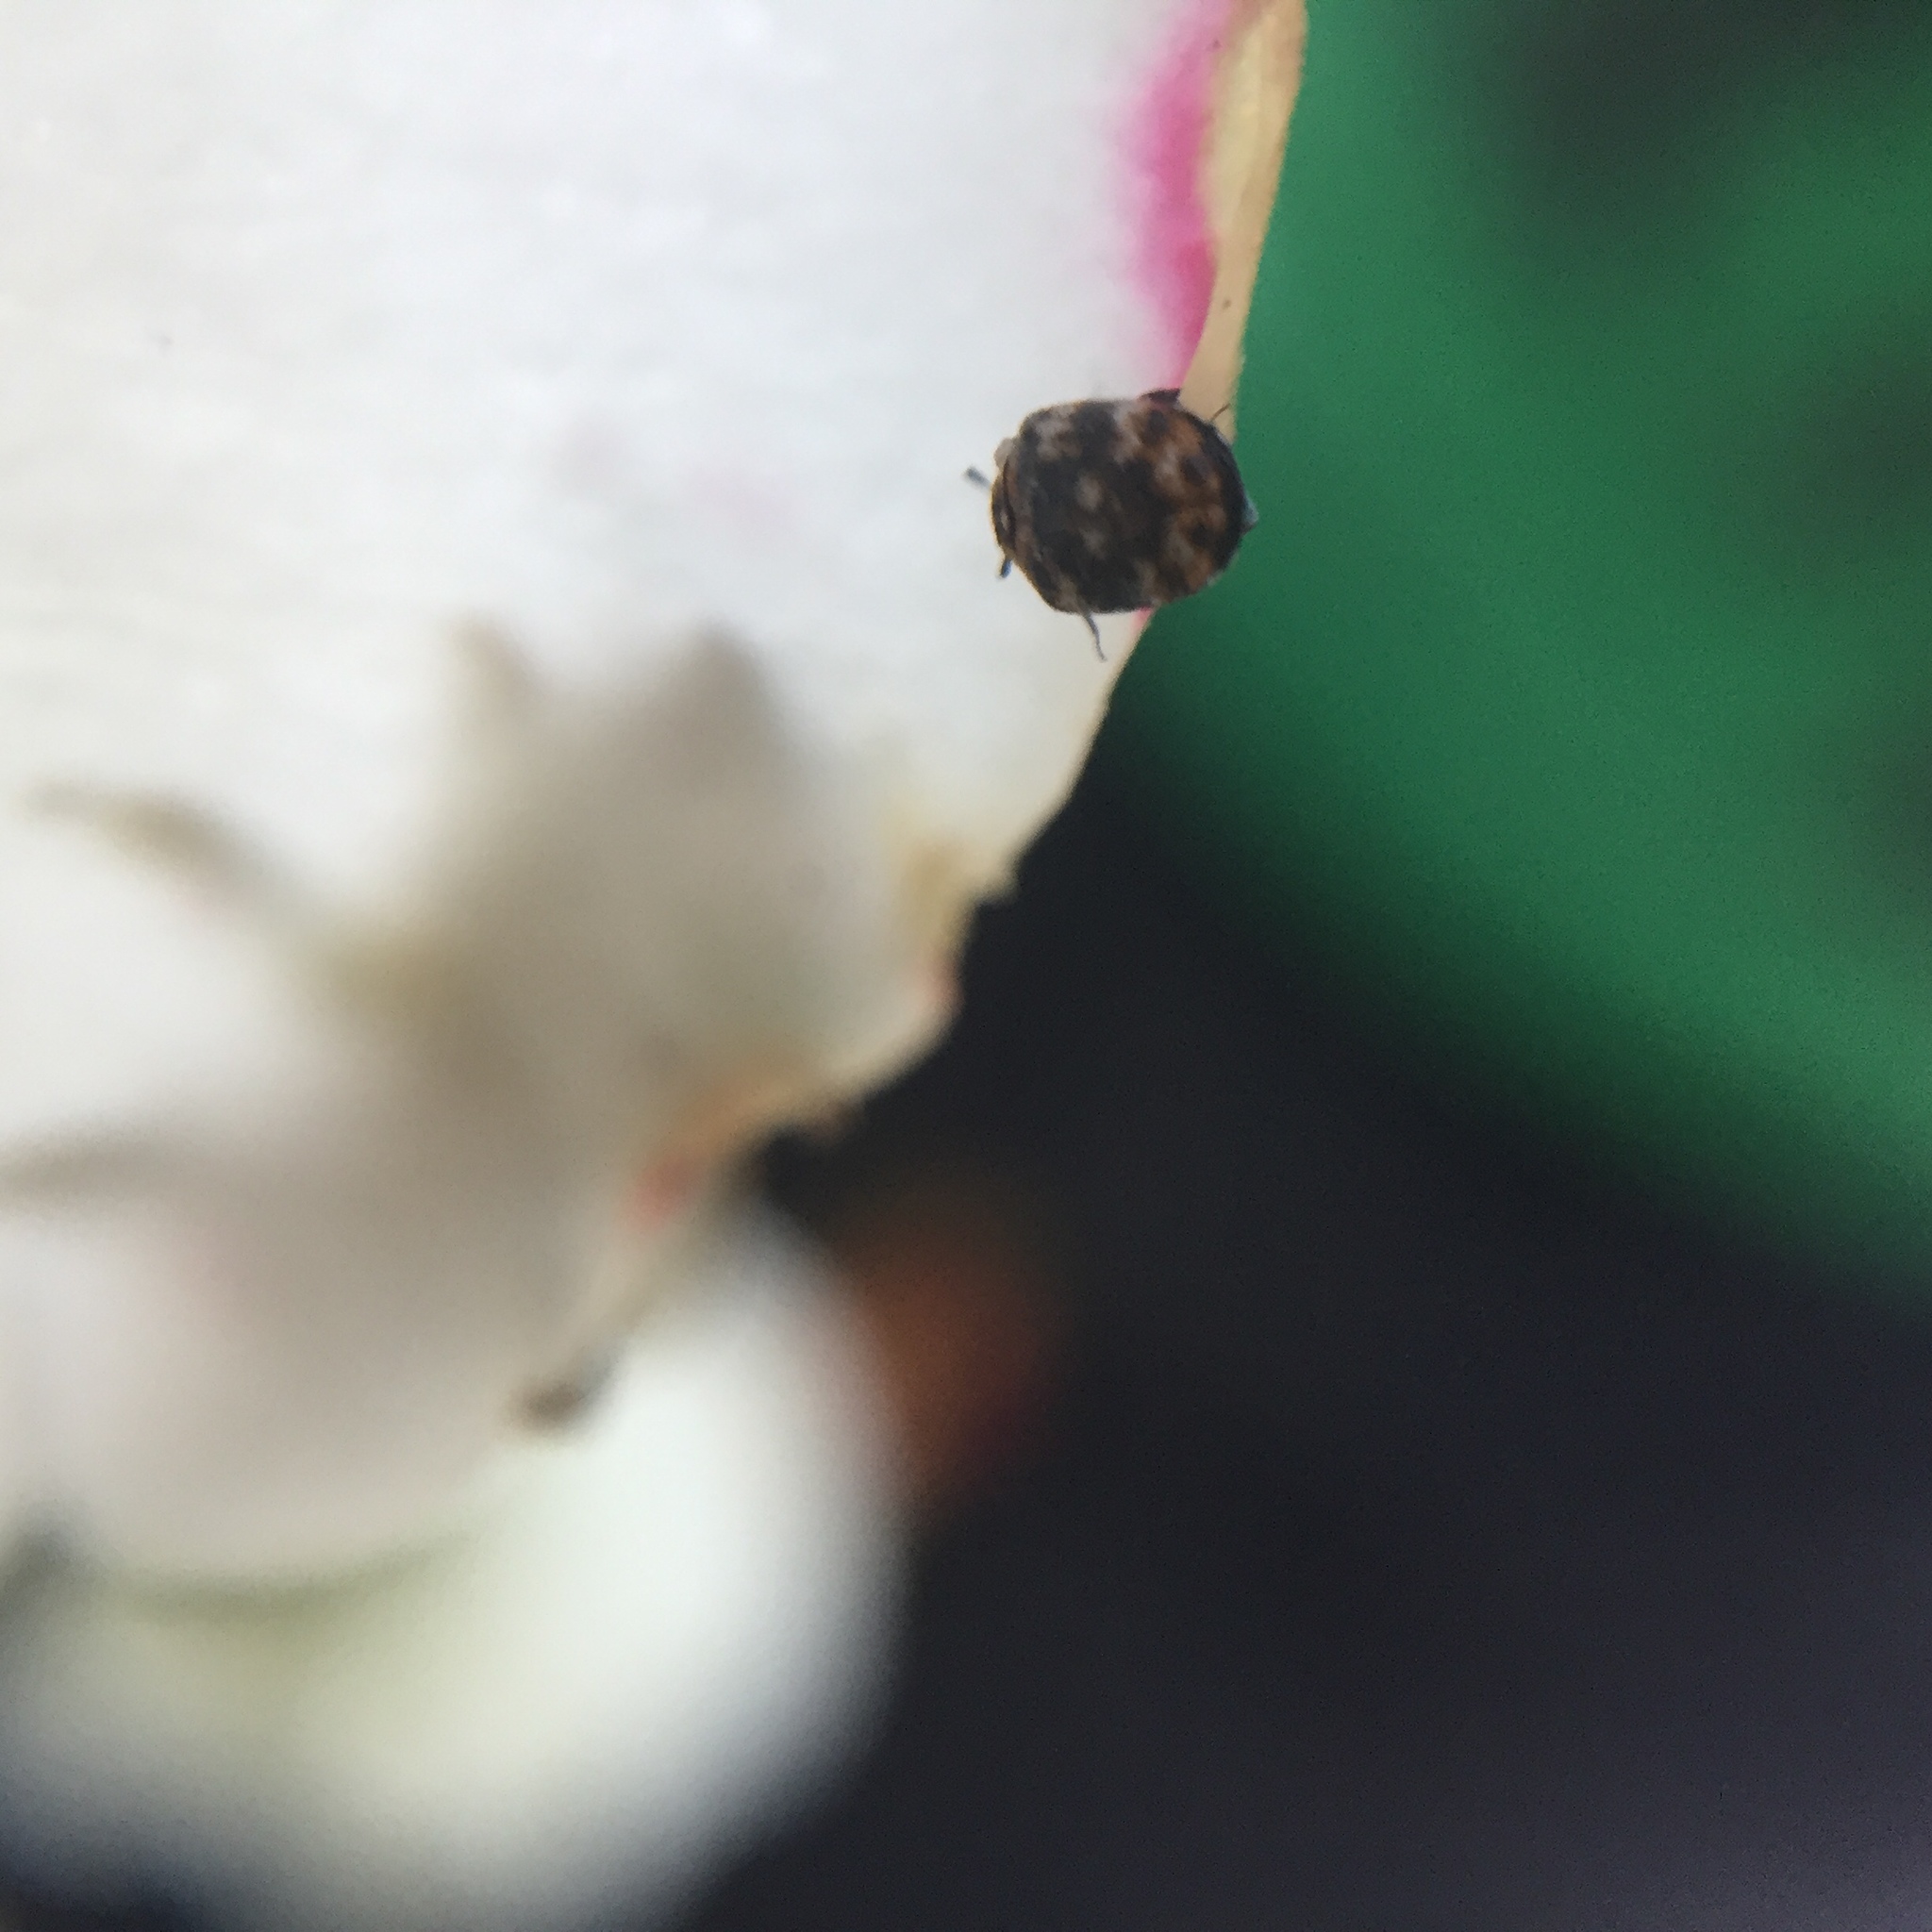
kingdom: Animalia
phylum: Arthropoda
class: Insecta
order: Coleoptera
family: Dermestidae
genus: Anthrenus
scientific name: Anthrenus verbasci
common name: Varied carpet beetle
